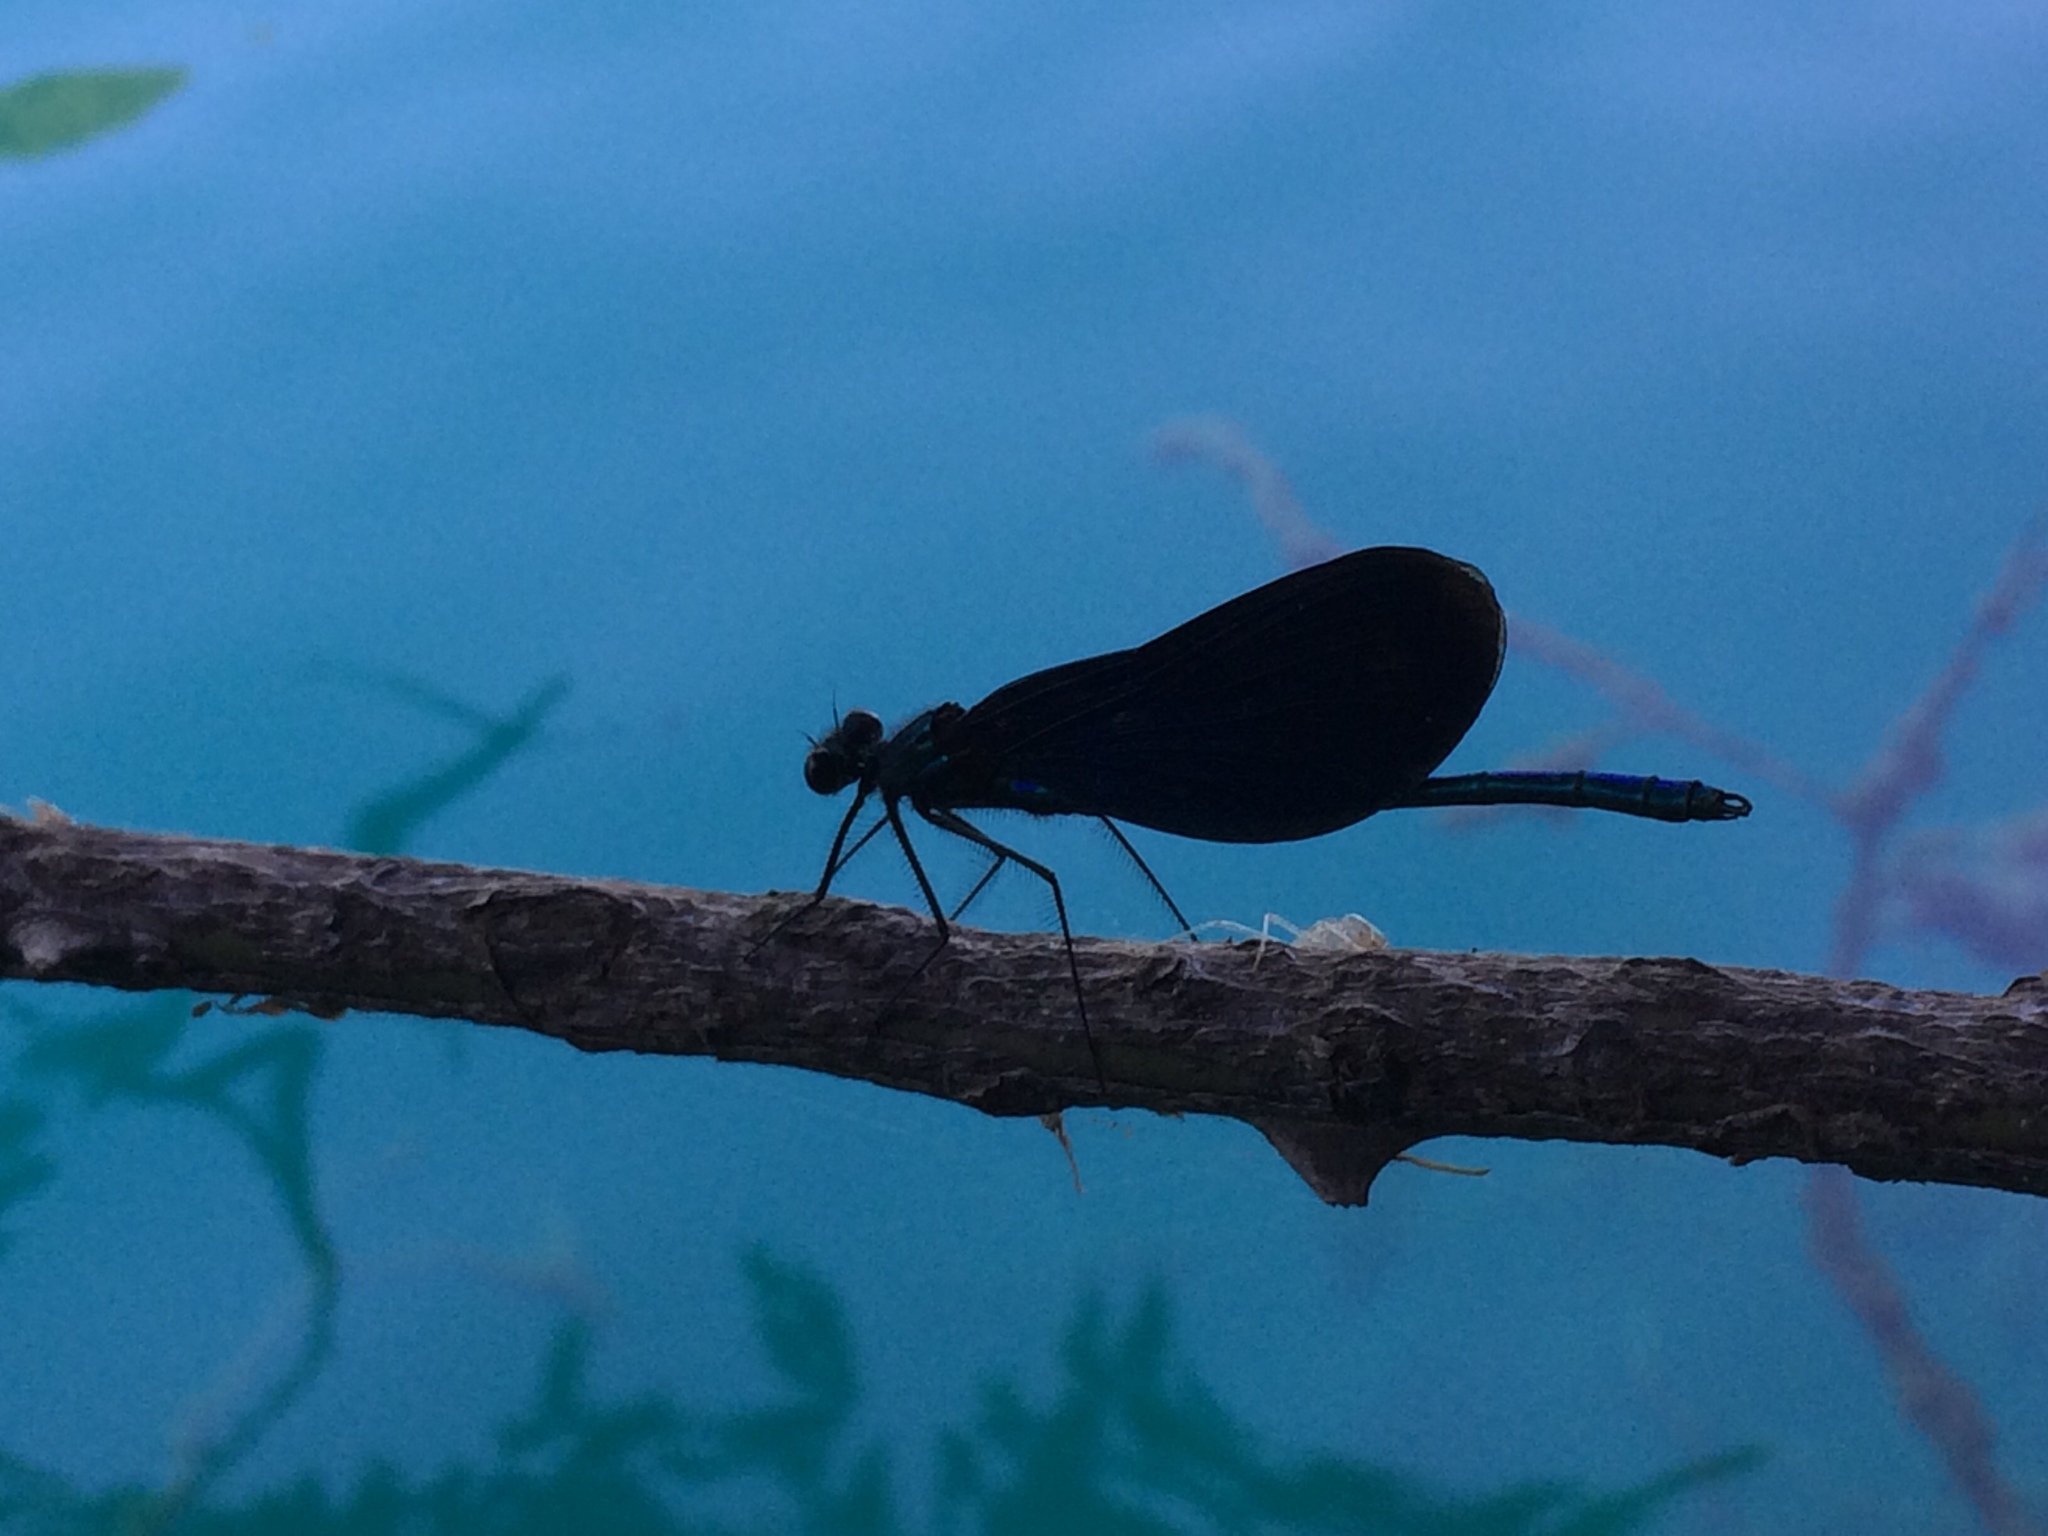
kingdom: Animalia
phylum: Arthropoda
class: Insecta
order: Odonata
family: Calopterygidae
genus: Calopteryx
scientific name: Calopteryx virgo
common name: Beautiful demoiselle
